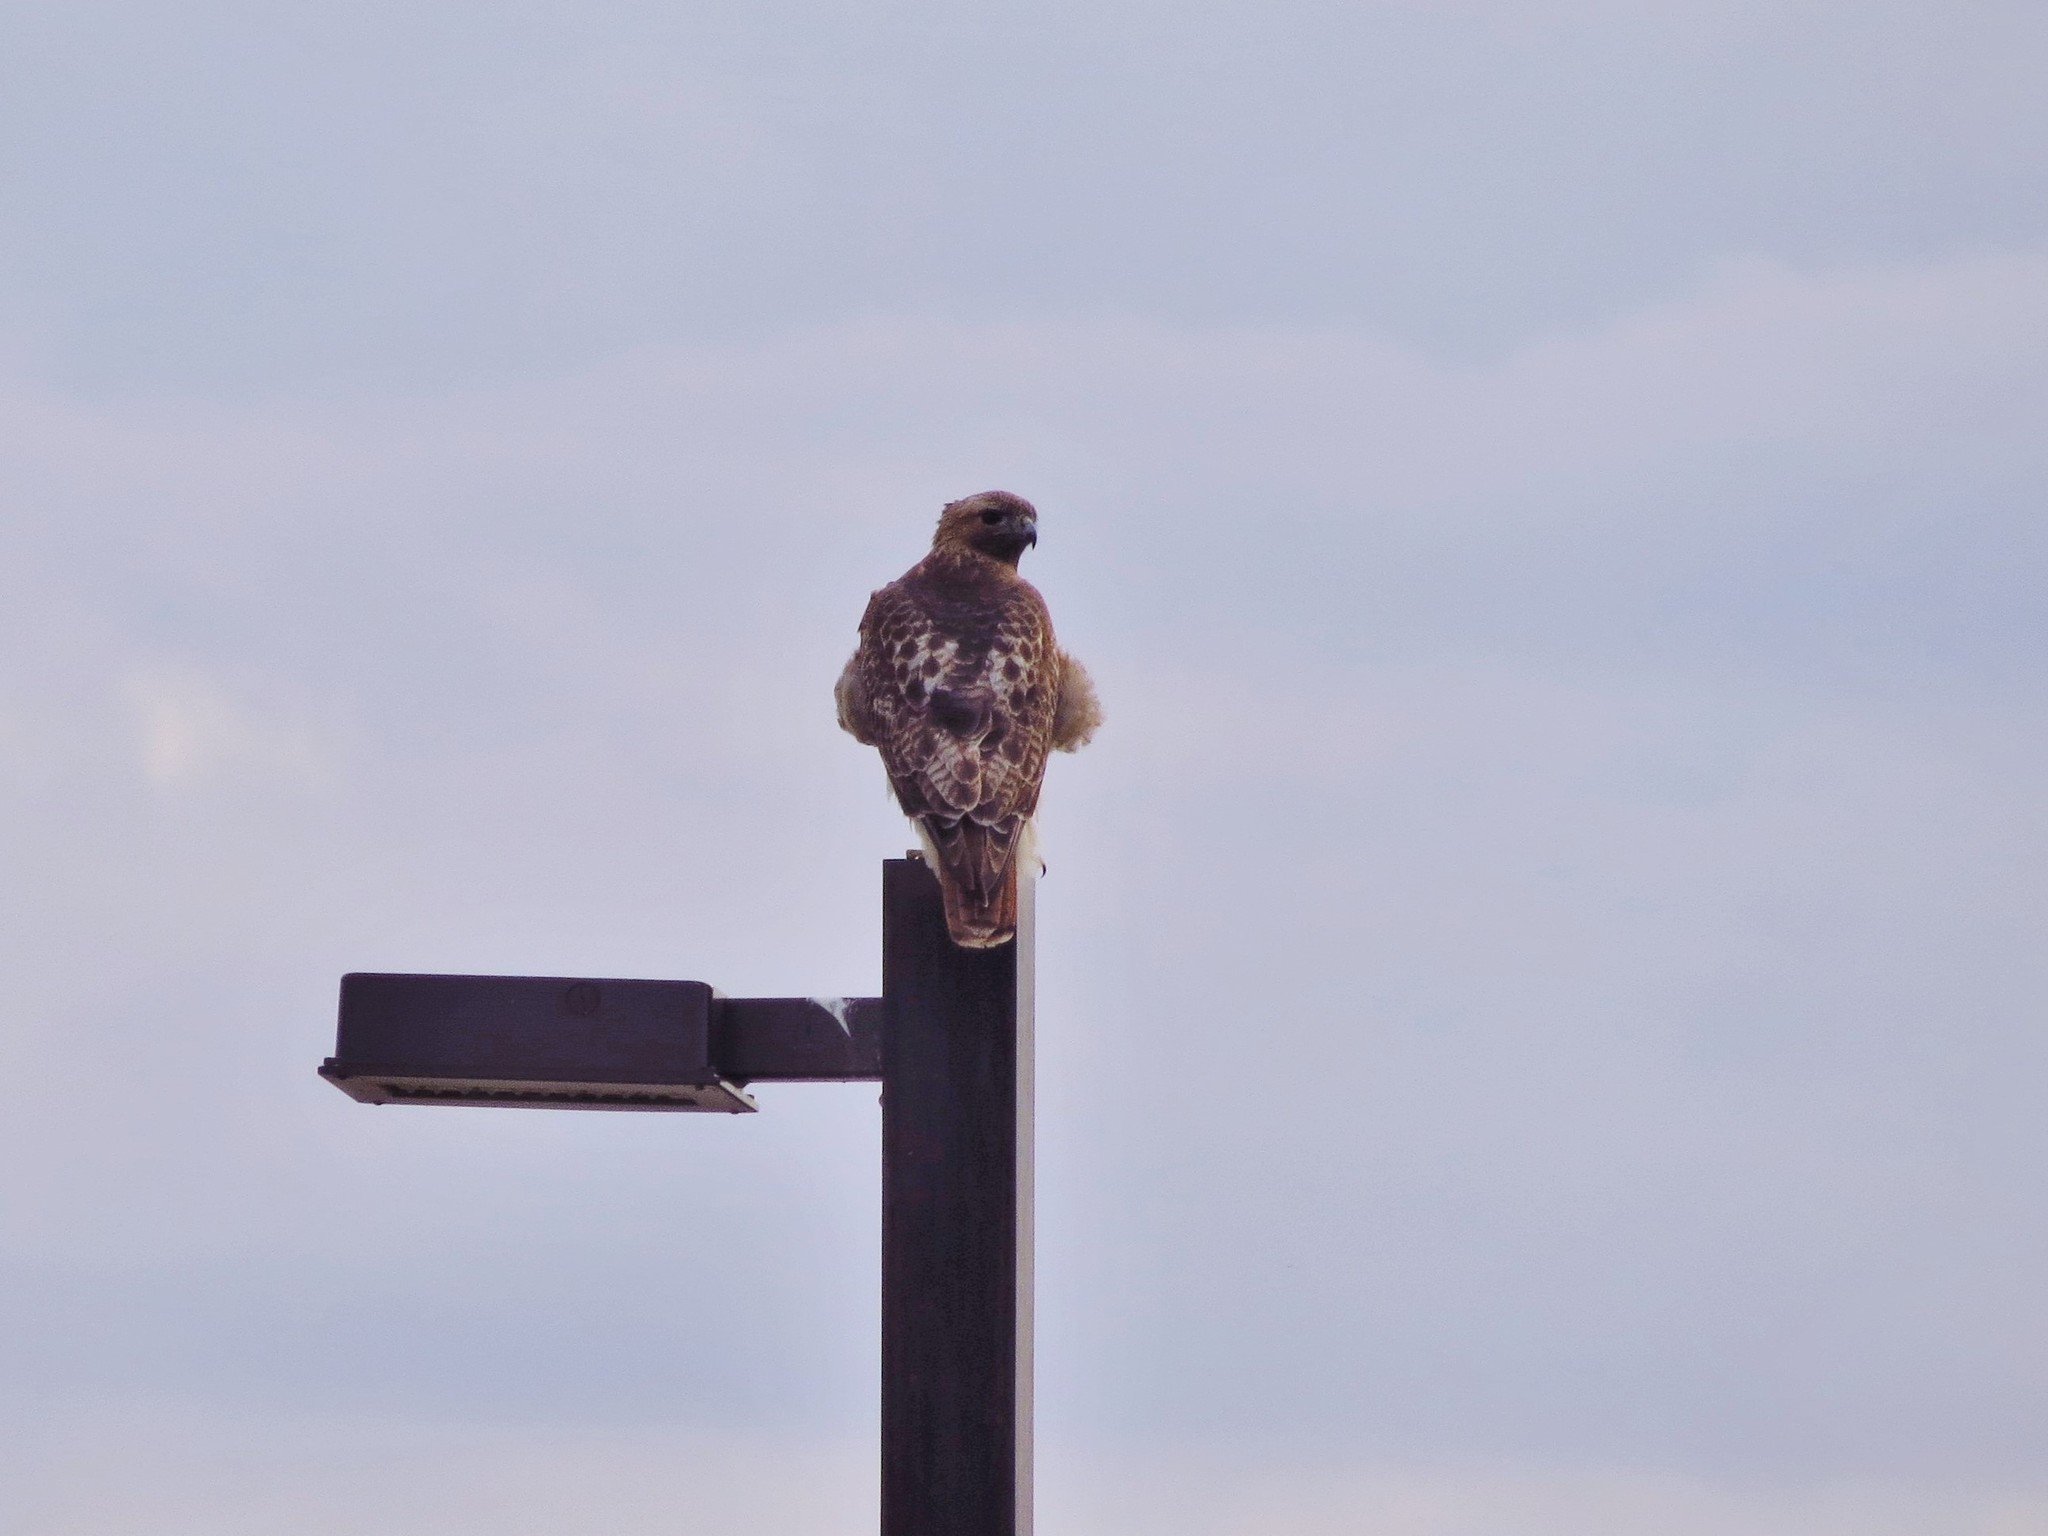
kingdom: Animalia
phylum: Chordata
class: Aves
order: Accipitriformes
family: Accipitridae
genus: Buteo
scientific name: Buteo jamaicensis
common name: Red-tailed hawk
